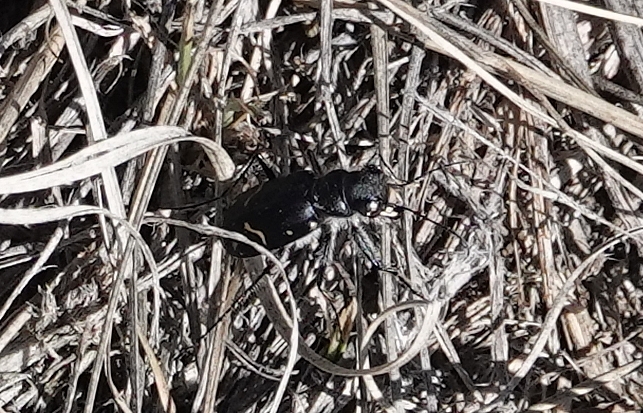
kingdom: Animalia
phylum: Arthropoda
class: Insecta
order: Coleoptera
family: Carabidae
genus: Cicindela
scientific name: Cicindela purpurea
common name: Cow path tiger beetle
